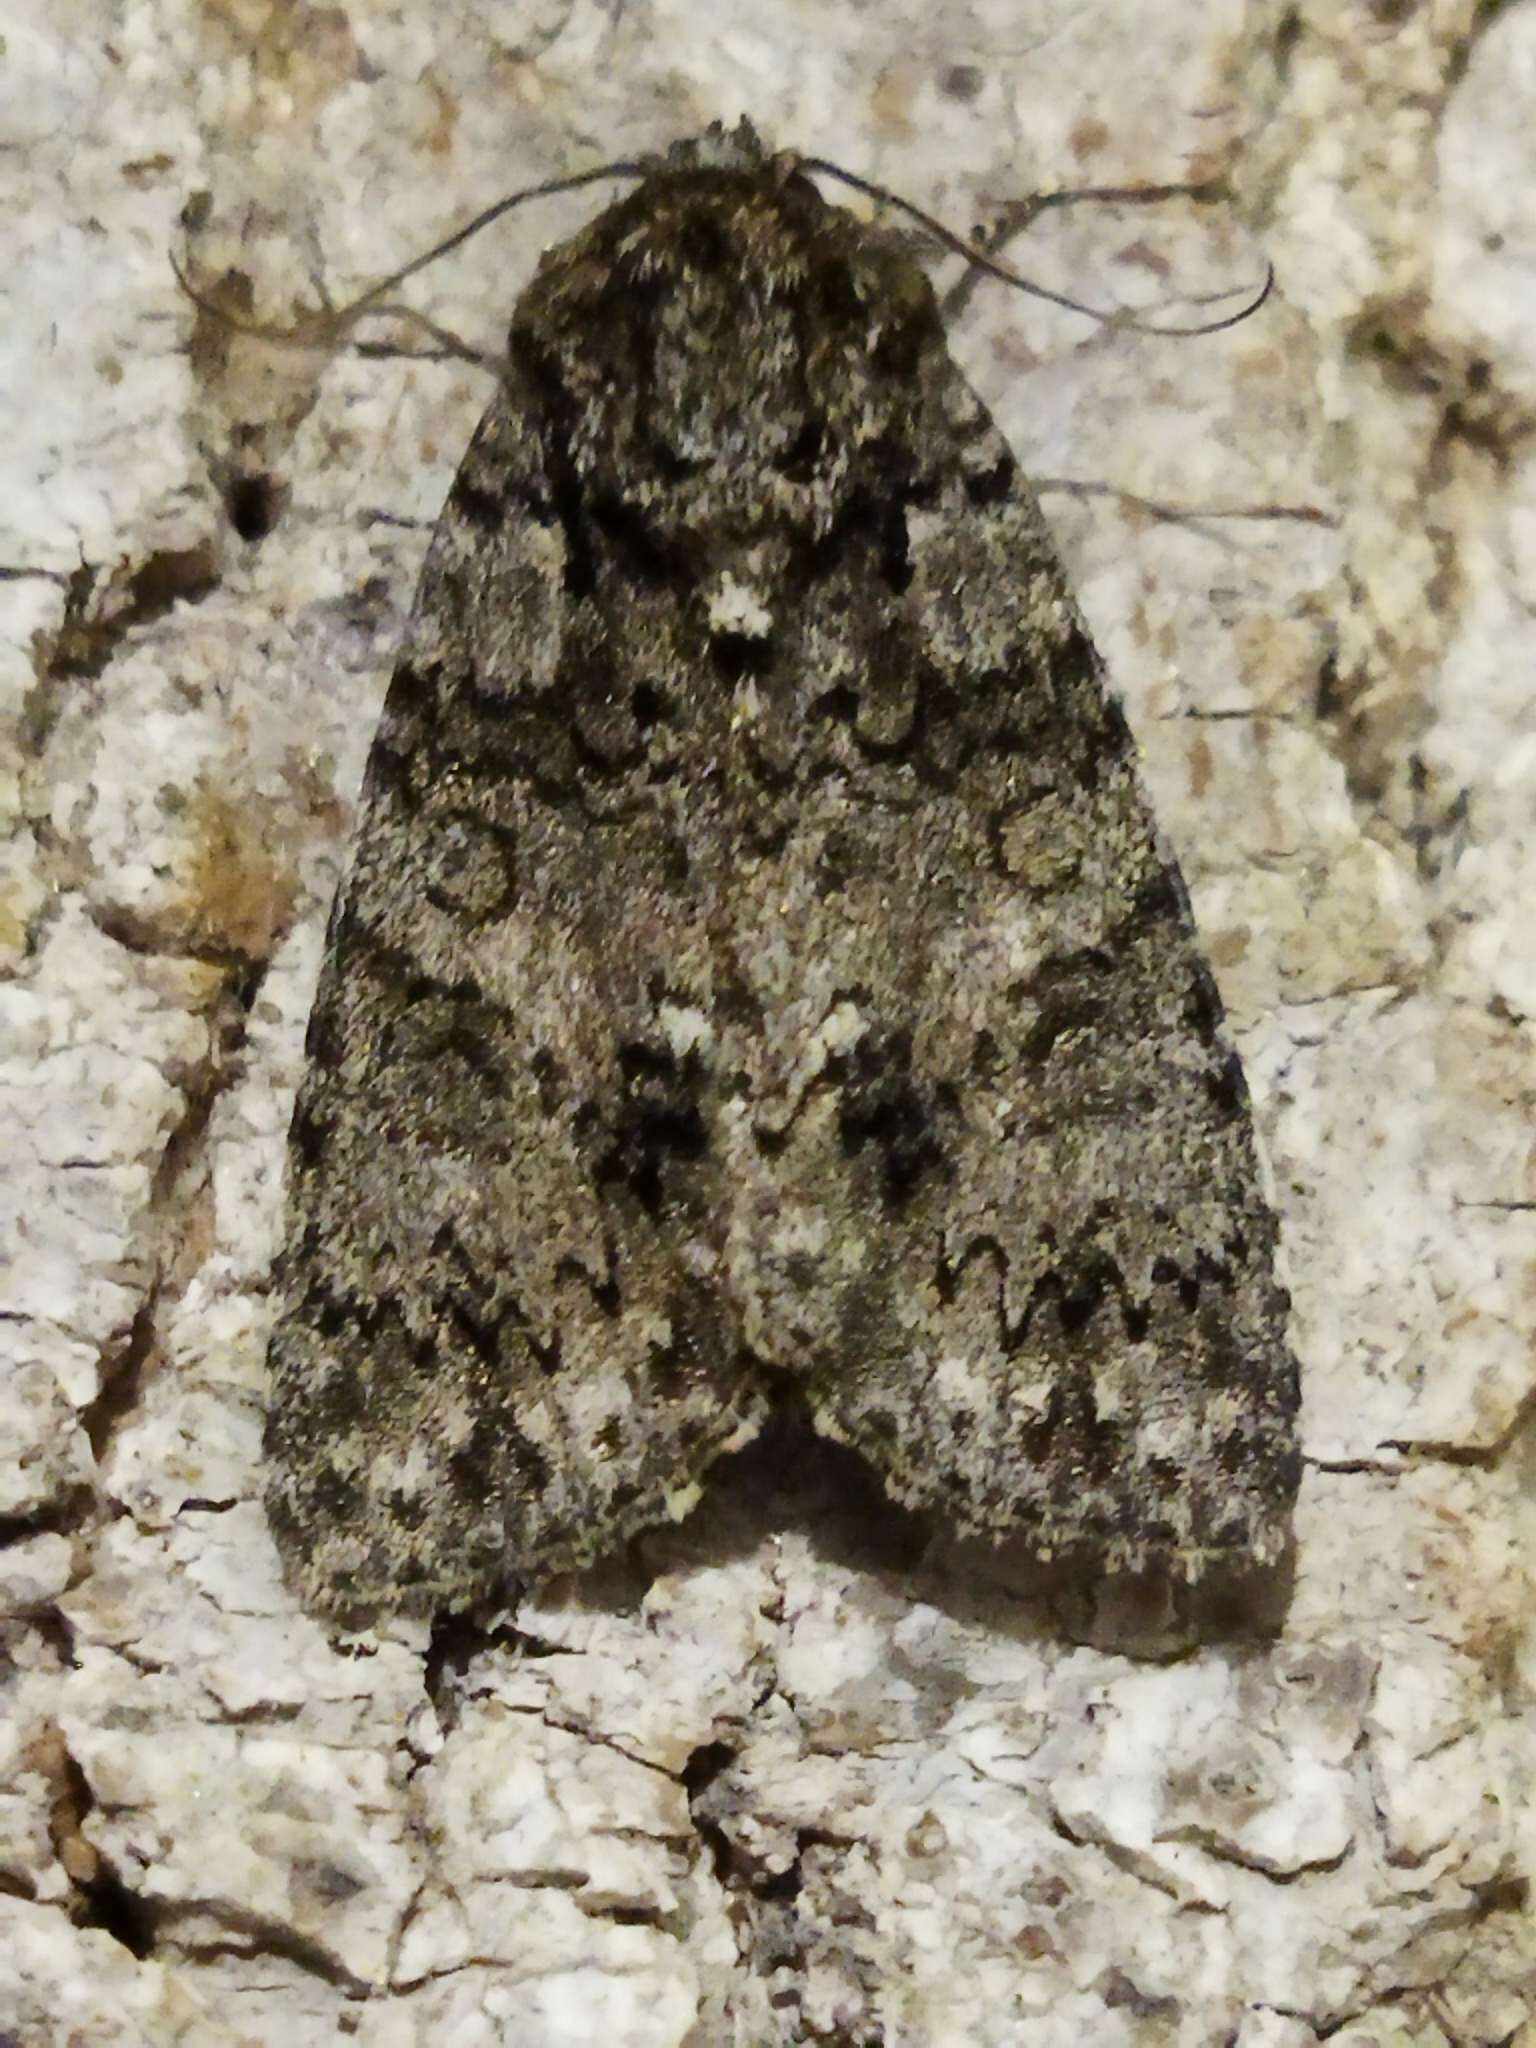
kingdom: Animalia
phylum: Arthropoda
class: Insecta
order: Lepidoptera
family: Noctuidae
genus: Acronicta
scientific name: Acronicta rumicis
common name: Knot grass
